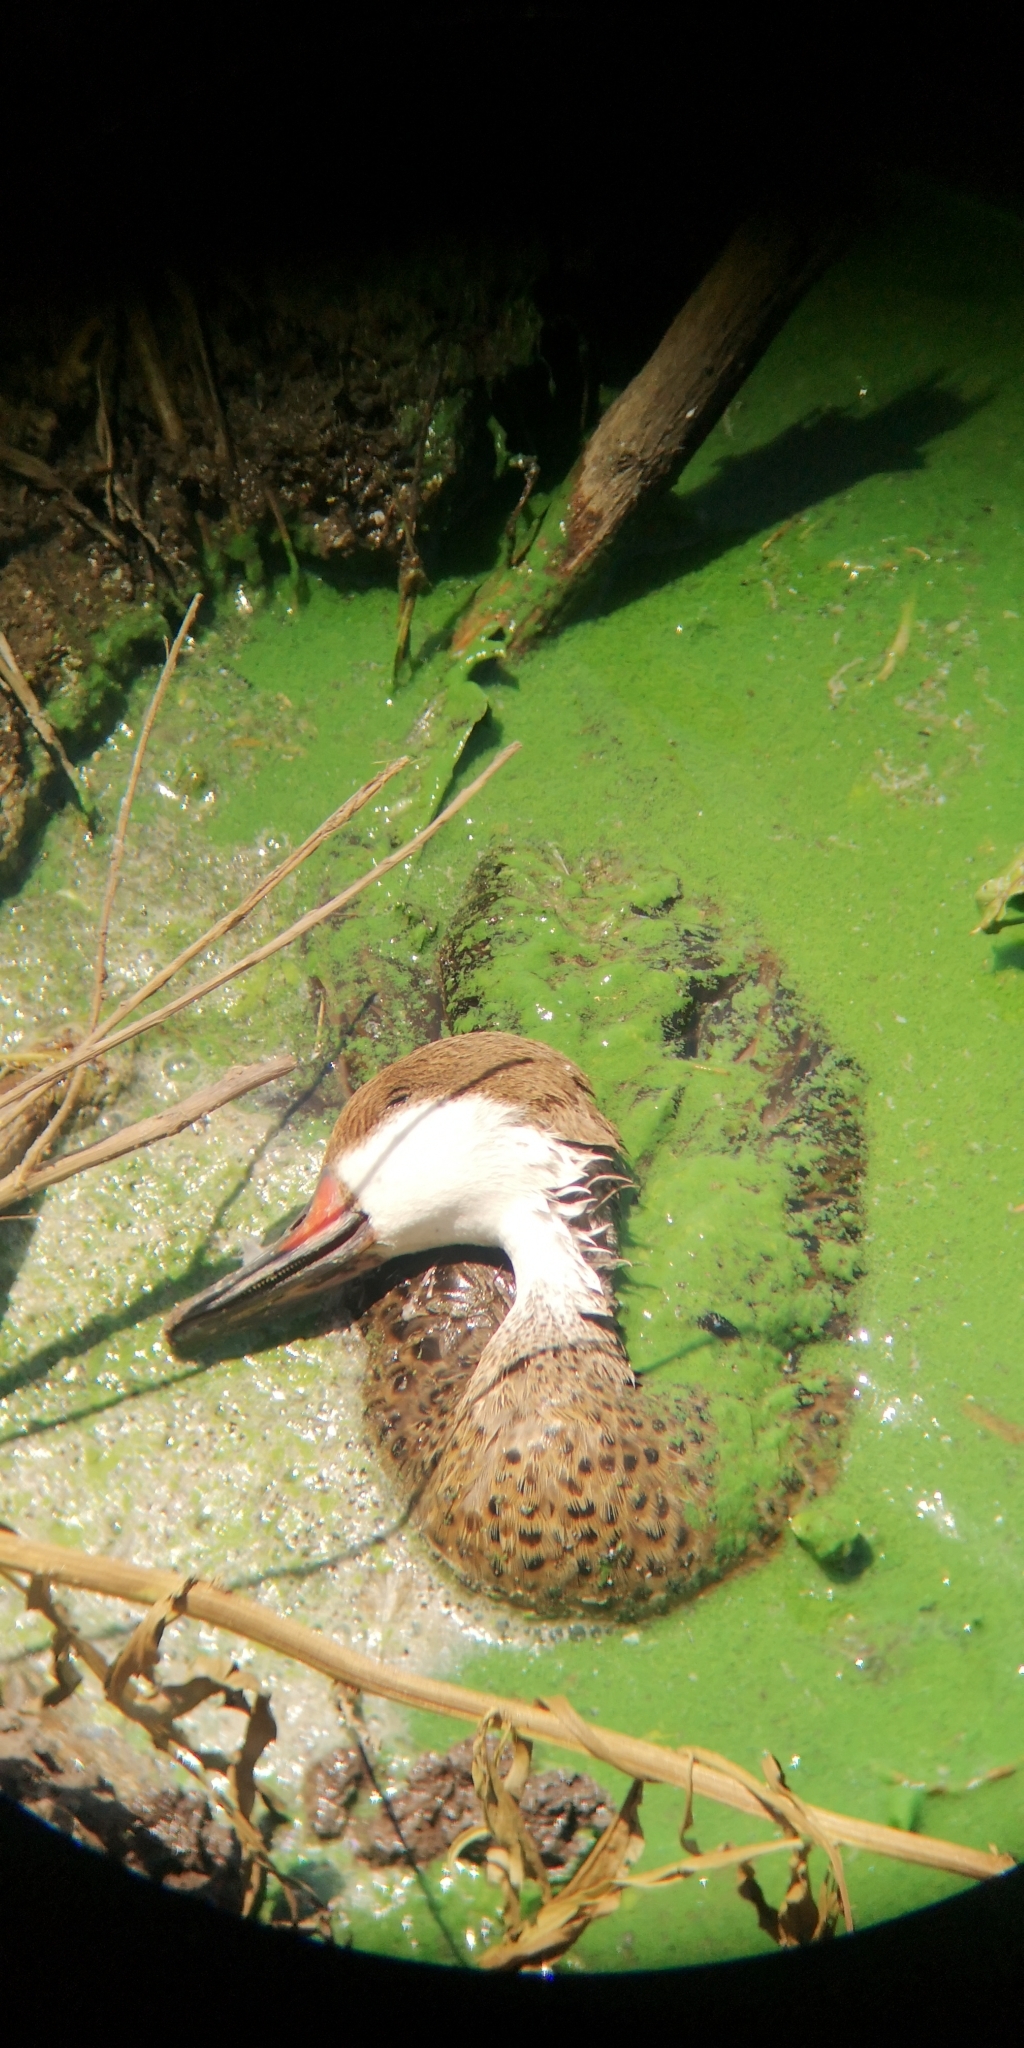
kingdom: Animalia
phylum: Chordata
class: Aves
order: Anseriformes
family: Anatidae
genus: Anas
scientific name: Anas bahamensis
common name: White-cheeked pintail
